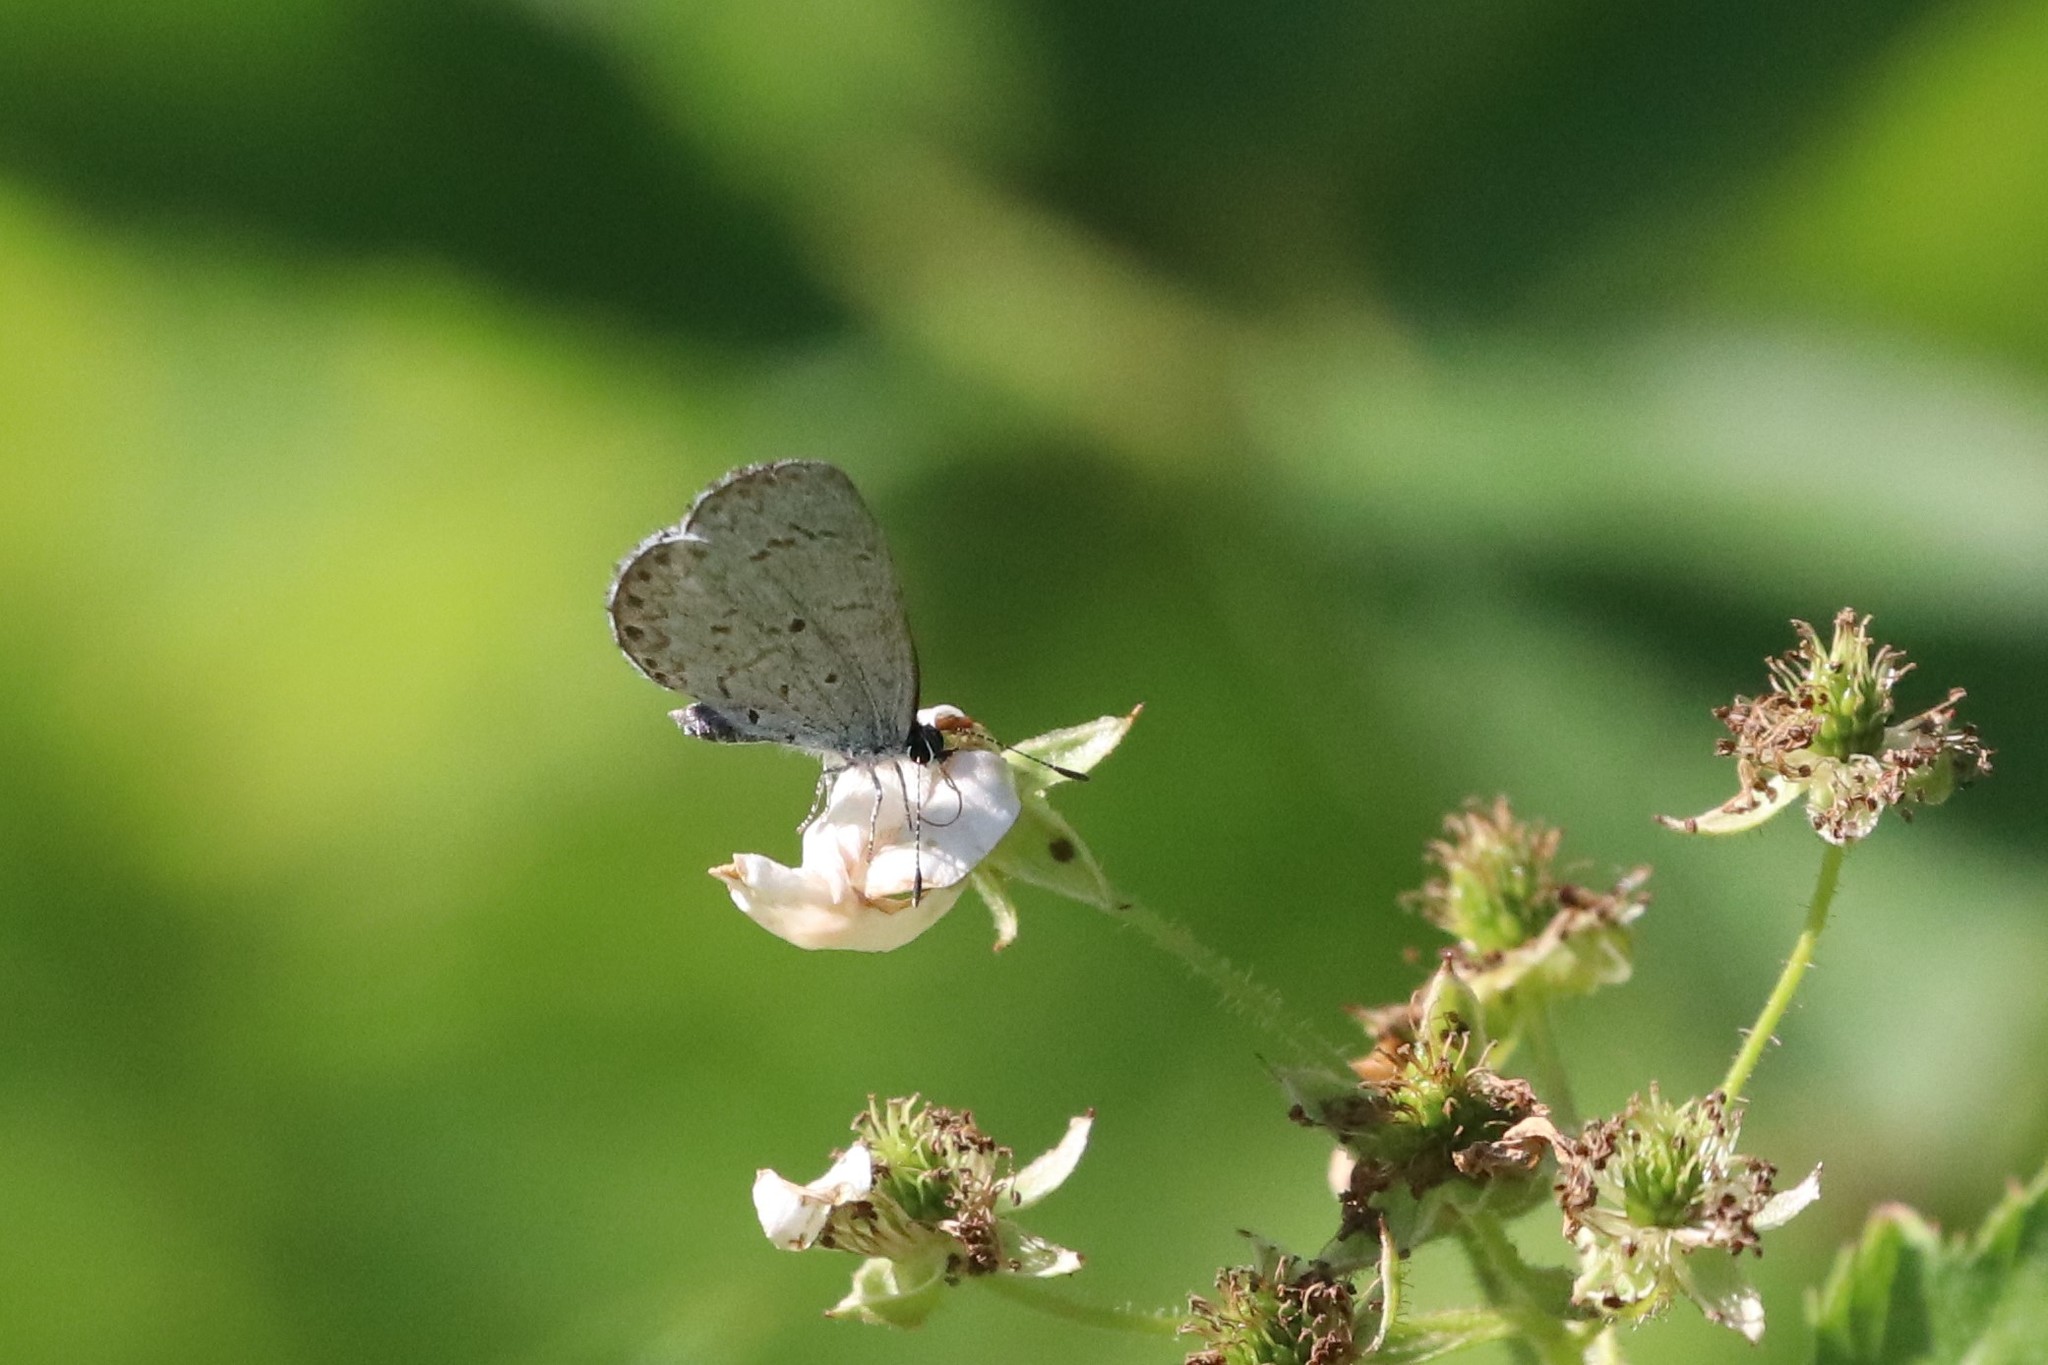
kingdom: Animalia
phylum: Arthropoda
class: Insecta
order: Lepidoptera
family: Lycaenidae
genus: Celastrina
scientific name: Celastrina lucia
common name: Lucia azure
